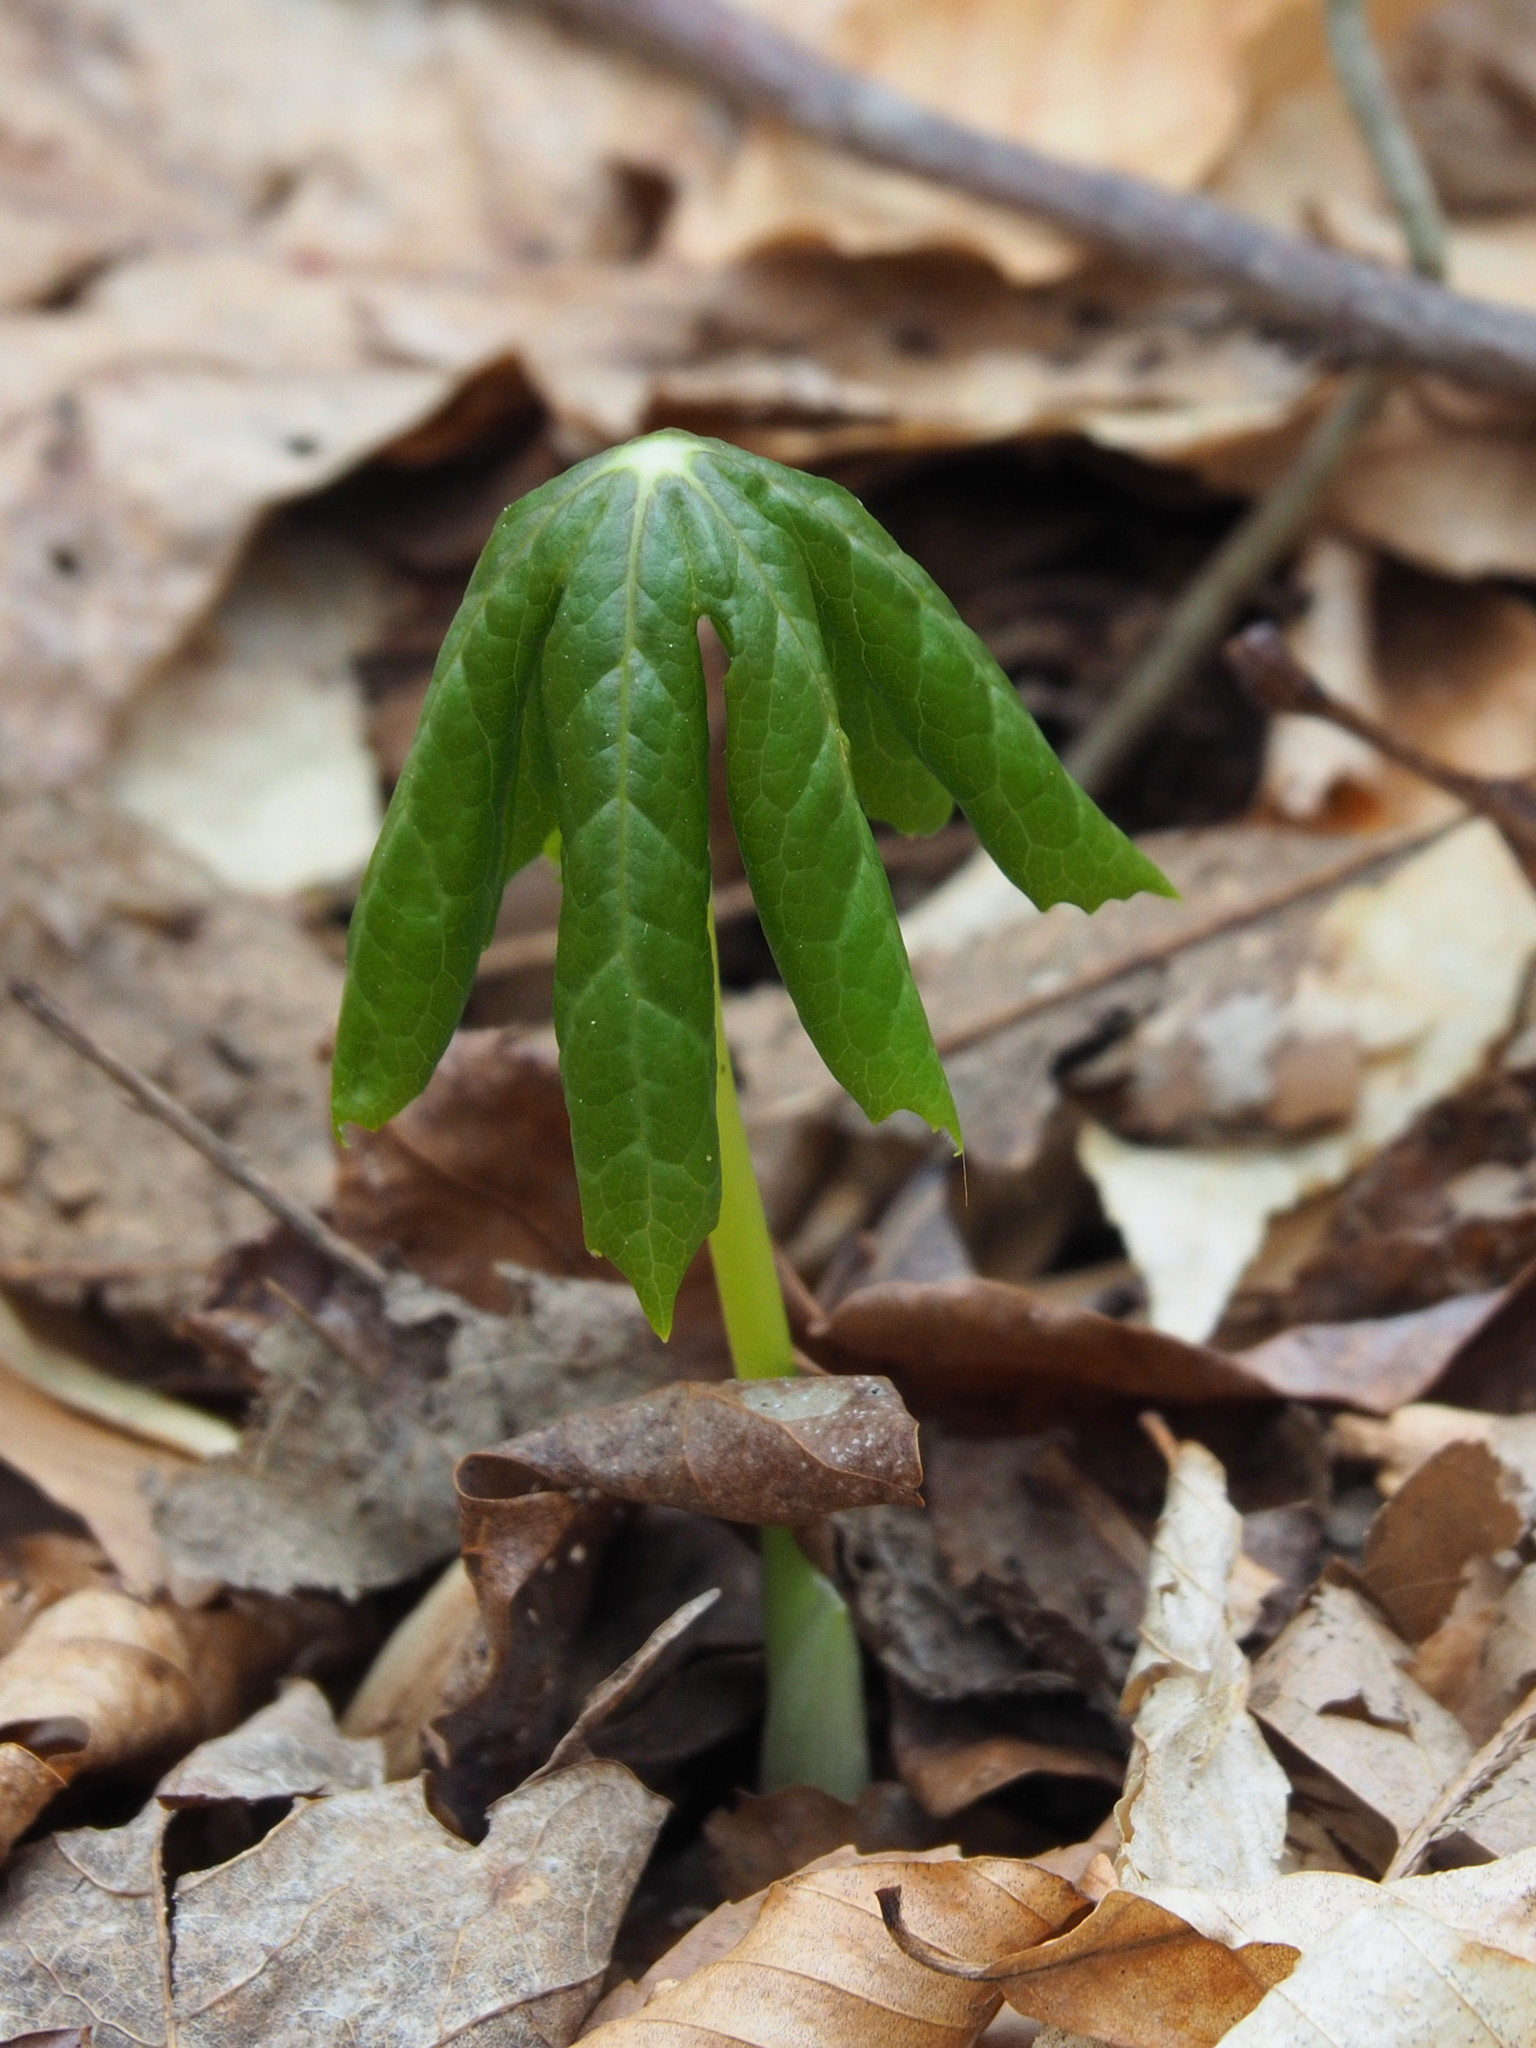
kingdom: Plantae
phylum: Tracheophyta
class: Magnoliopsida
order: Ranunculales
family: Berberidaceae
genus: Podophyllum
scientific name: Podophyllum peltatum
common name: Wild mandrake
